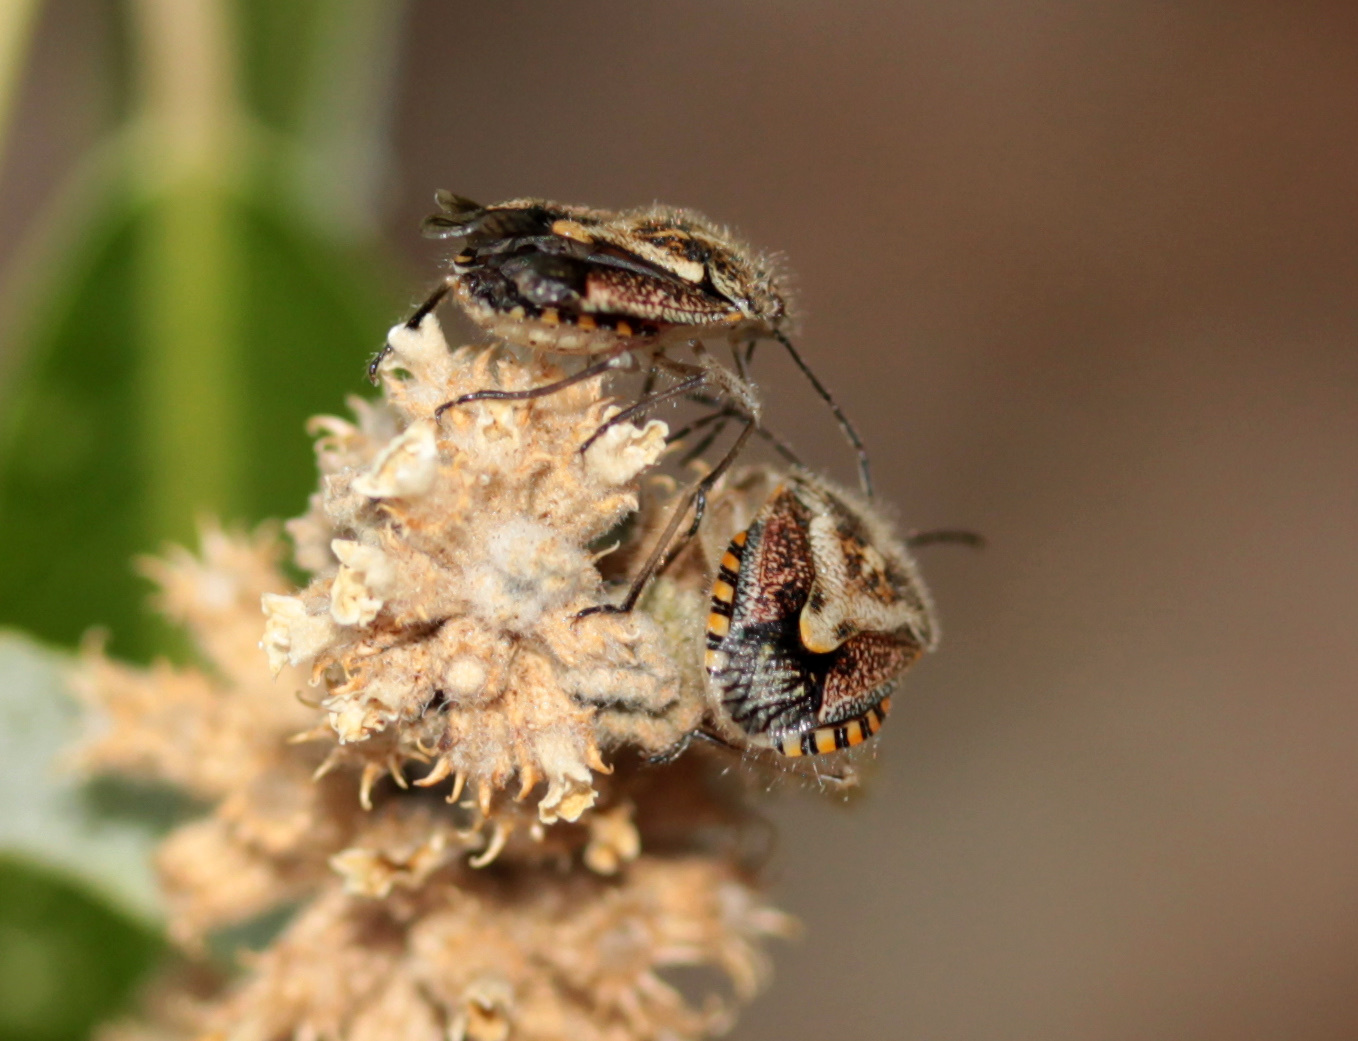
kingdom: Animalia
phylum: Arthropoda
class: Insecta
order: Hemiptera
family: Pentatomidae
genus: Agonoscelis
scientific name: Agonoscelis puberula
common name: African cluster bug
